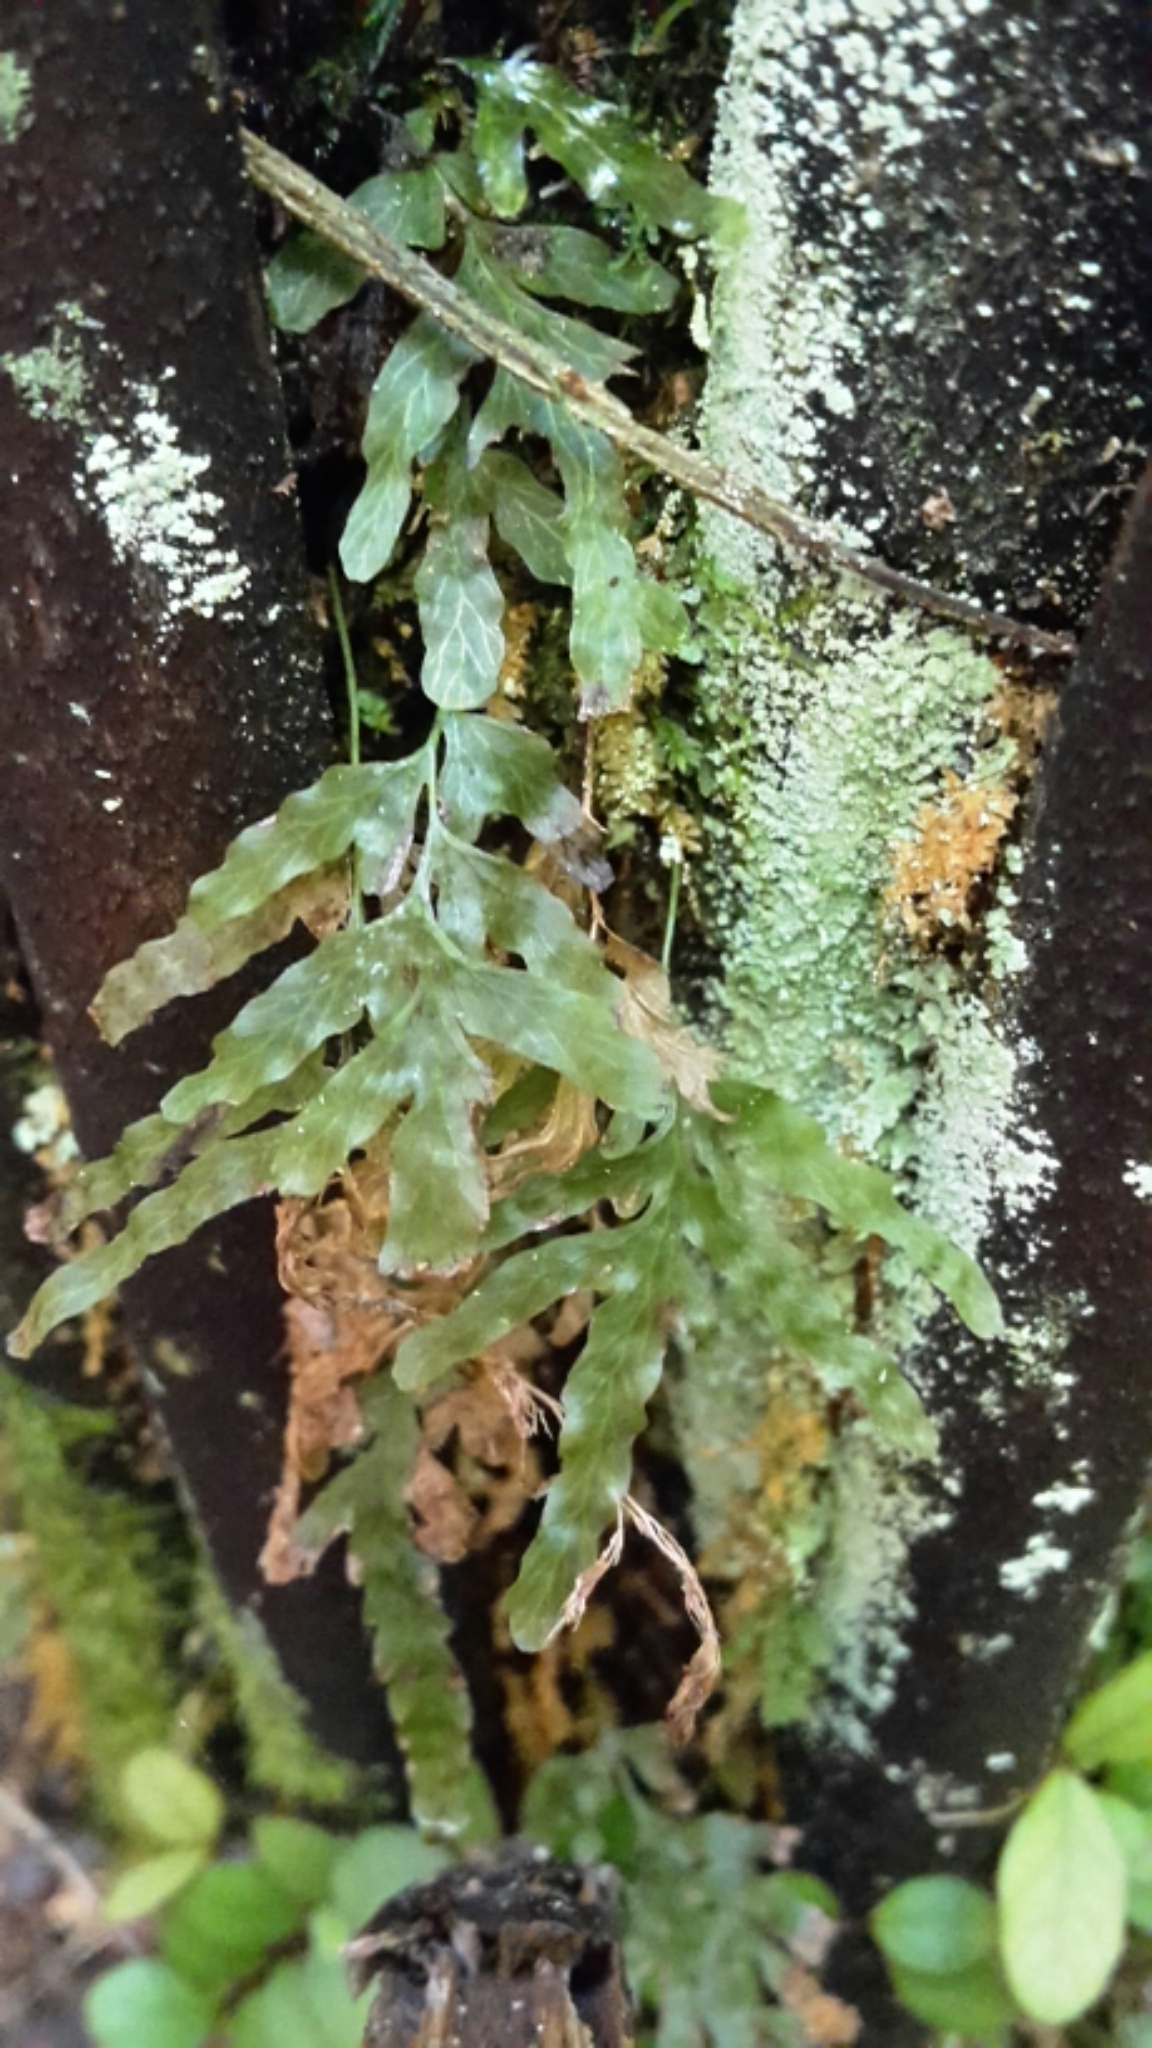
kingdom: Plantae
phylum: Tracheophyta
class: Polypodiopsida
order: Hymenophyllales
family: Hymenophyllaceae
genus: Polyphlebium
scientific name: Polyphlebium venosum
